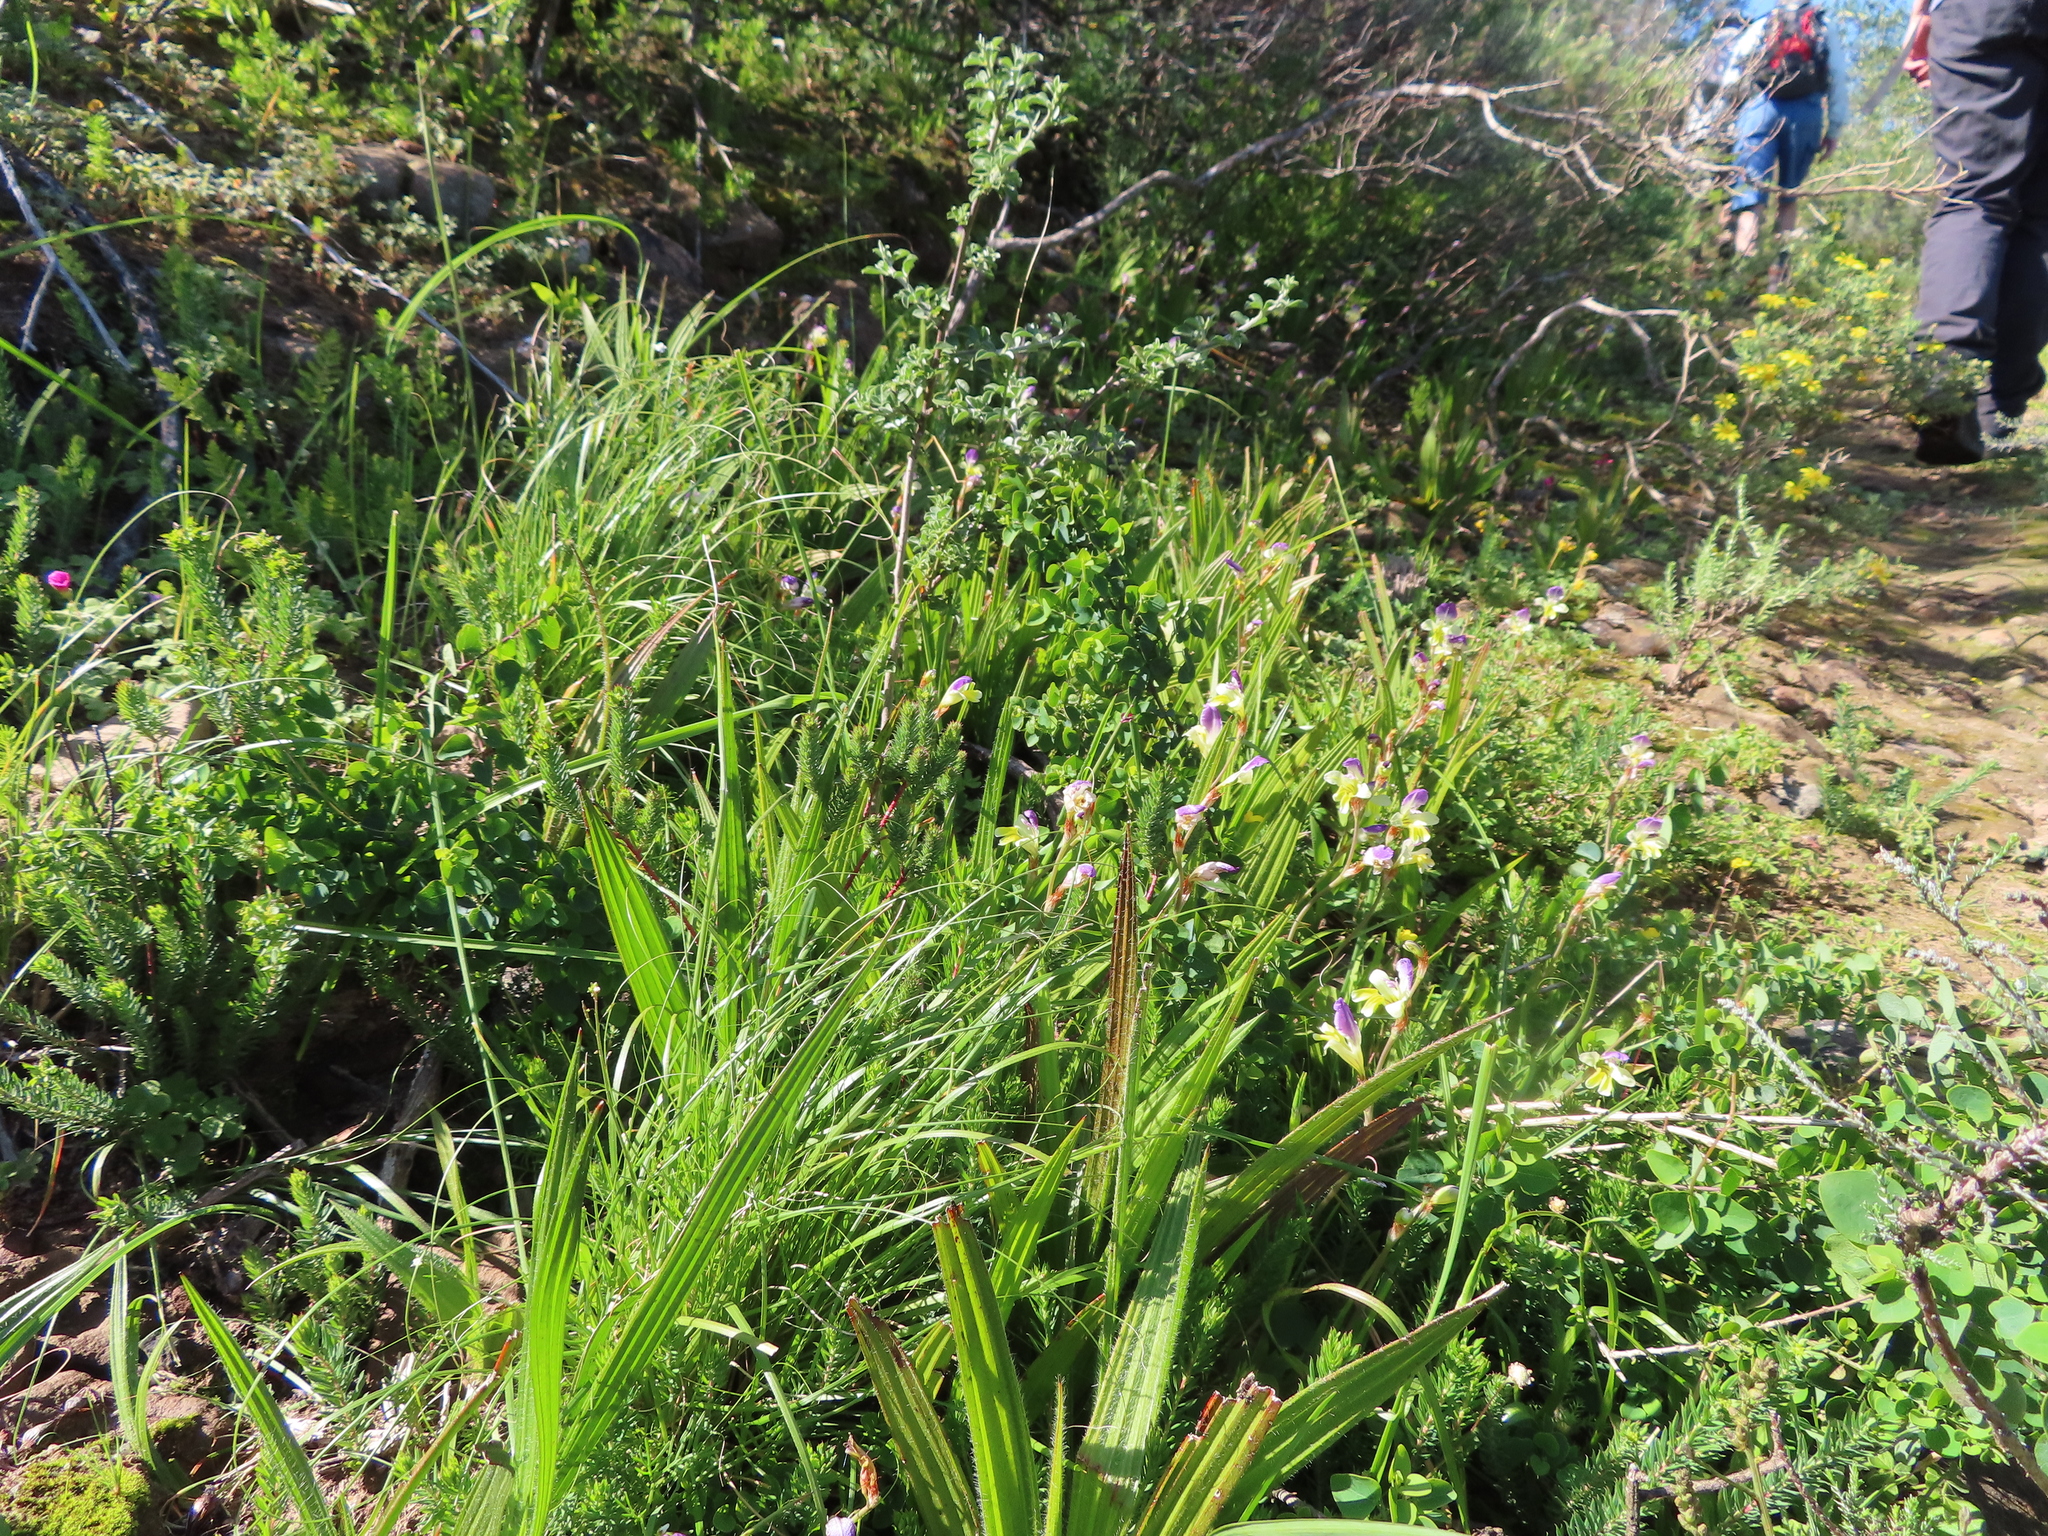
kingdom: Plantae
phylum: Tracheophyta
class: Liliopsida
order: Asparagales
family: Iridaceae
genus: Sparaxis
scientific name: Sparaxis villosa
